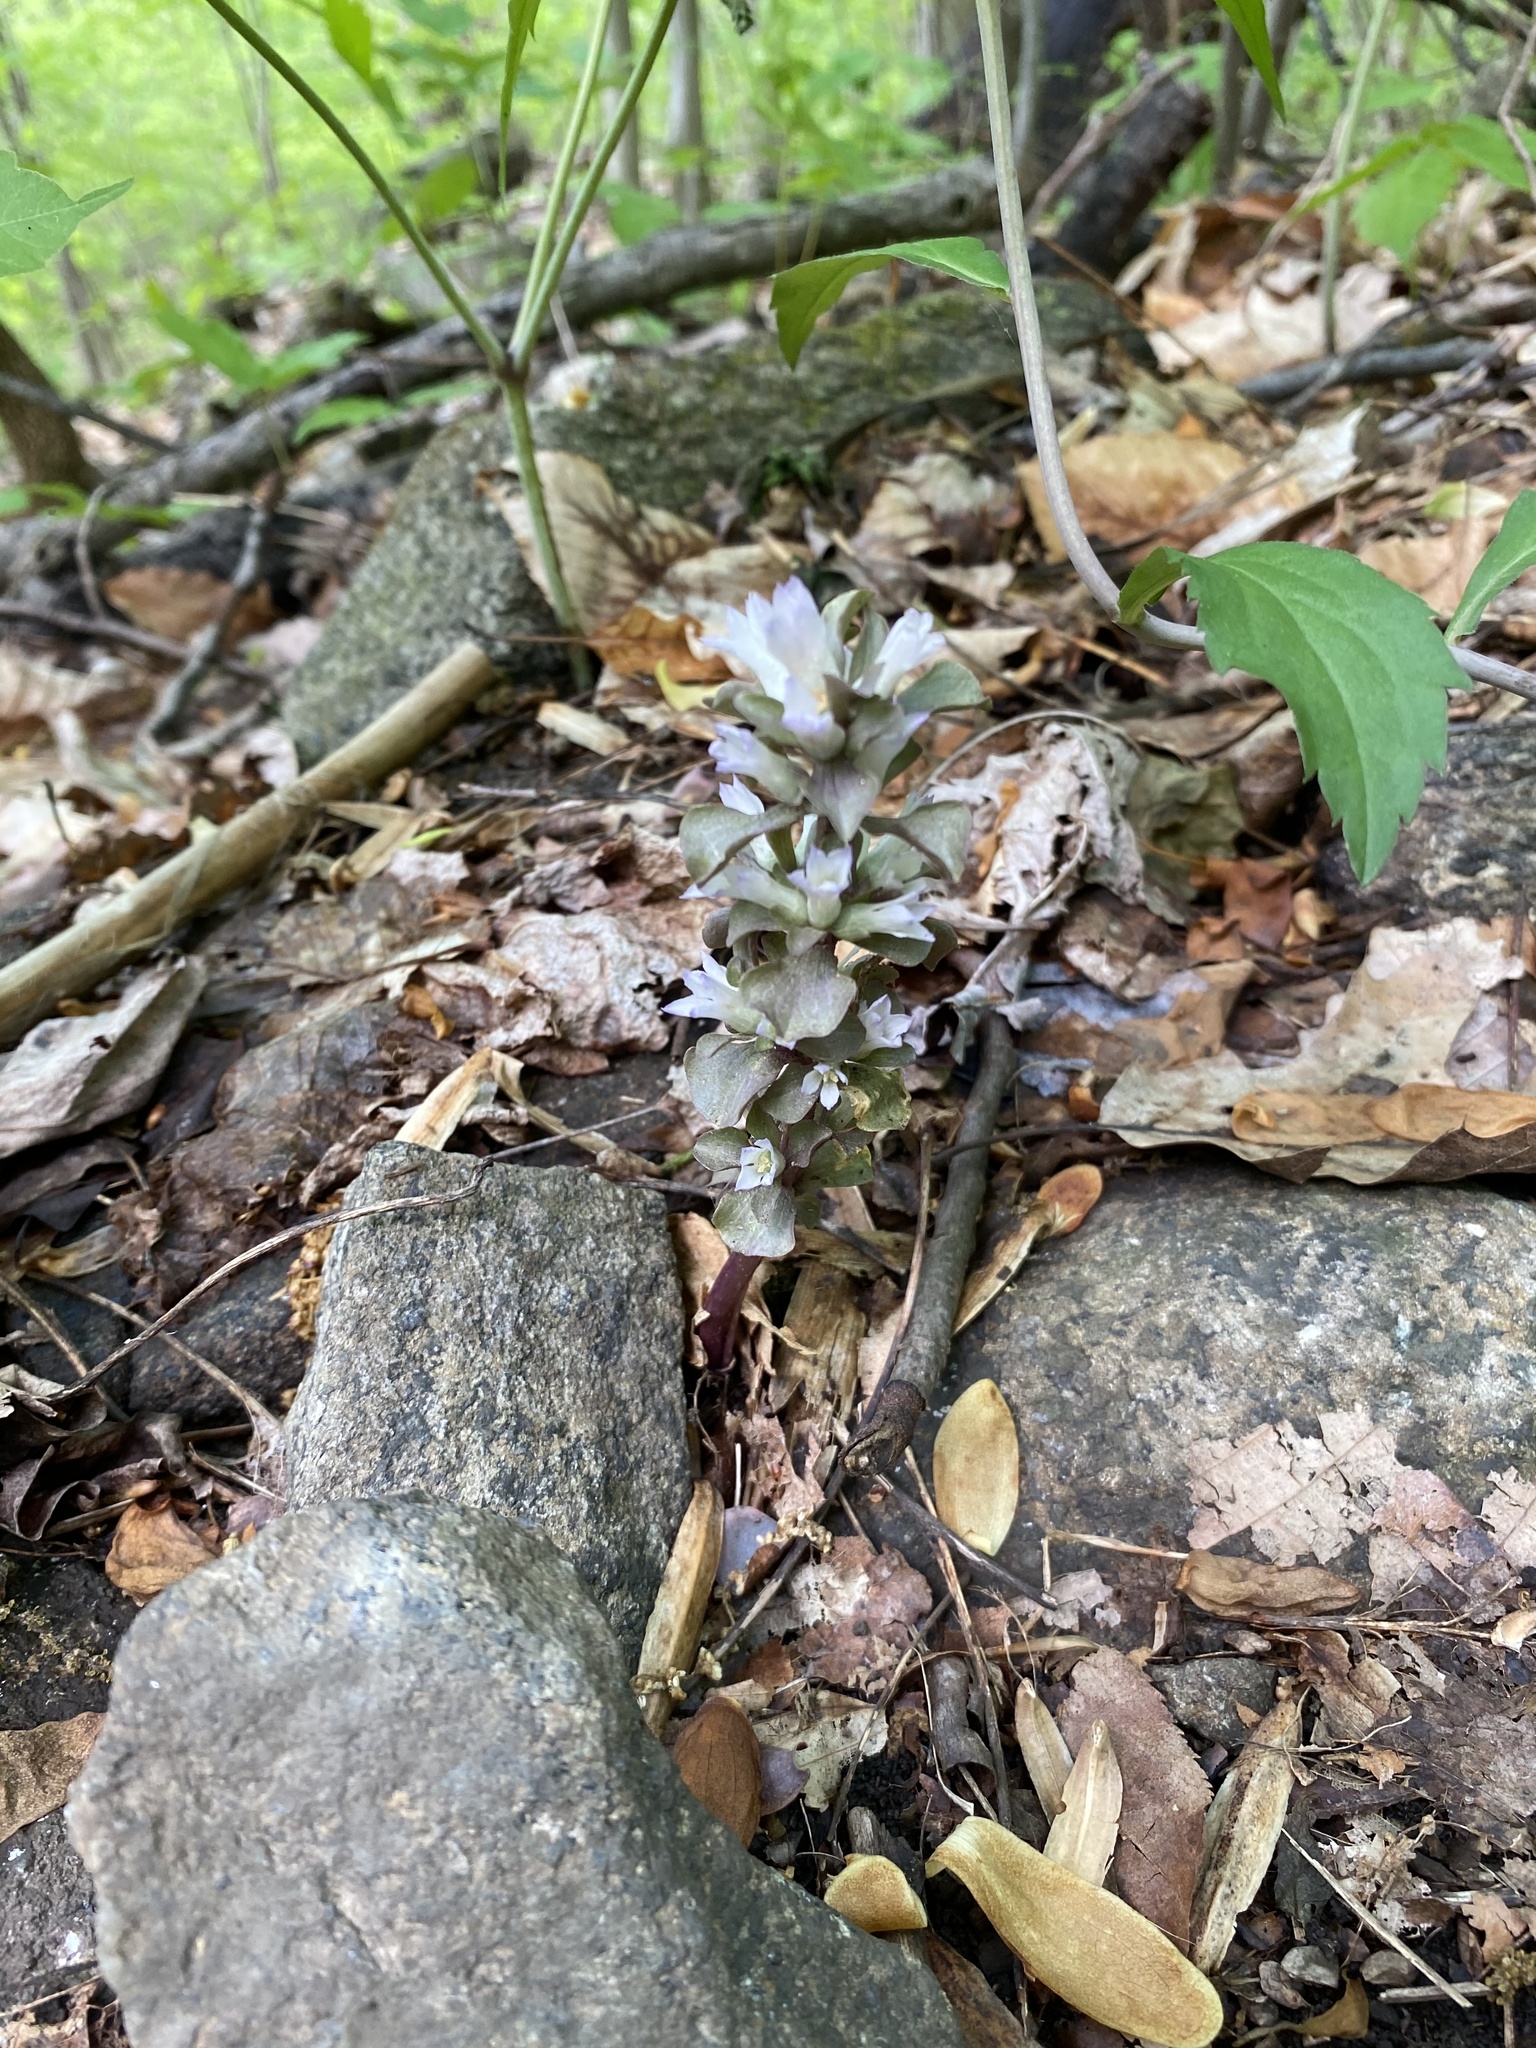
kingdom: Plantae
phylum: Tracheophyta
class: Magnoliopsida
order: Gentianales
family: Gentianaceae
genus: Obolaria
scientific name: Obolaria virginica
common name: Pennywort
